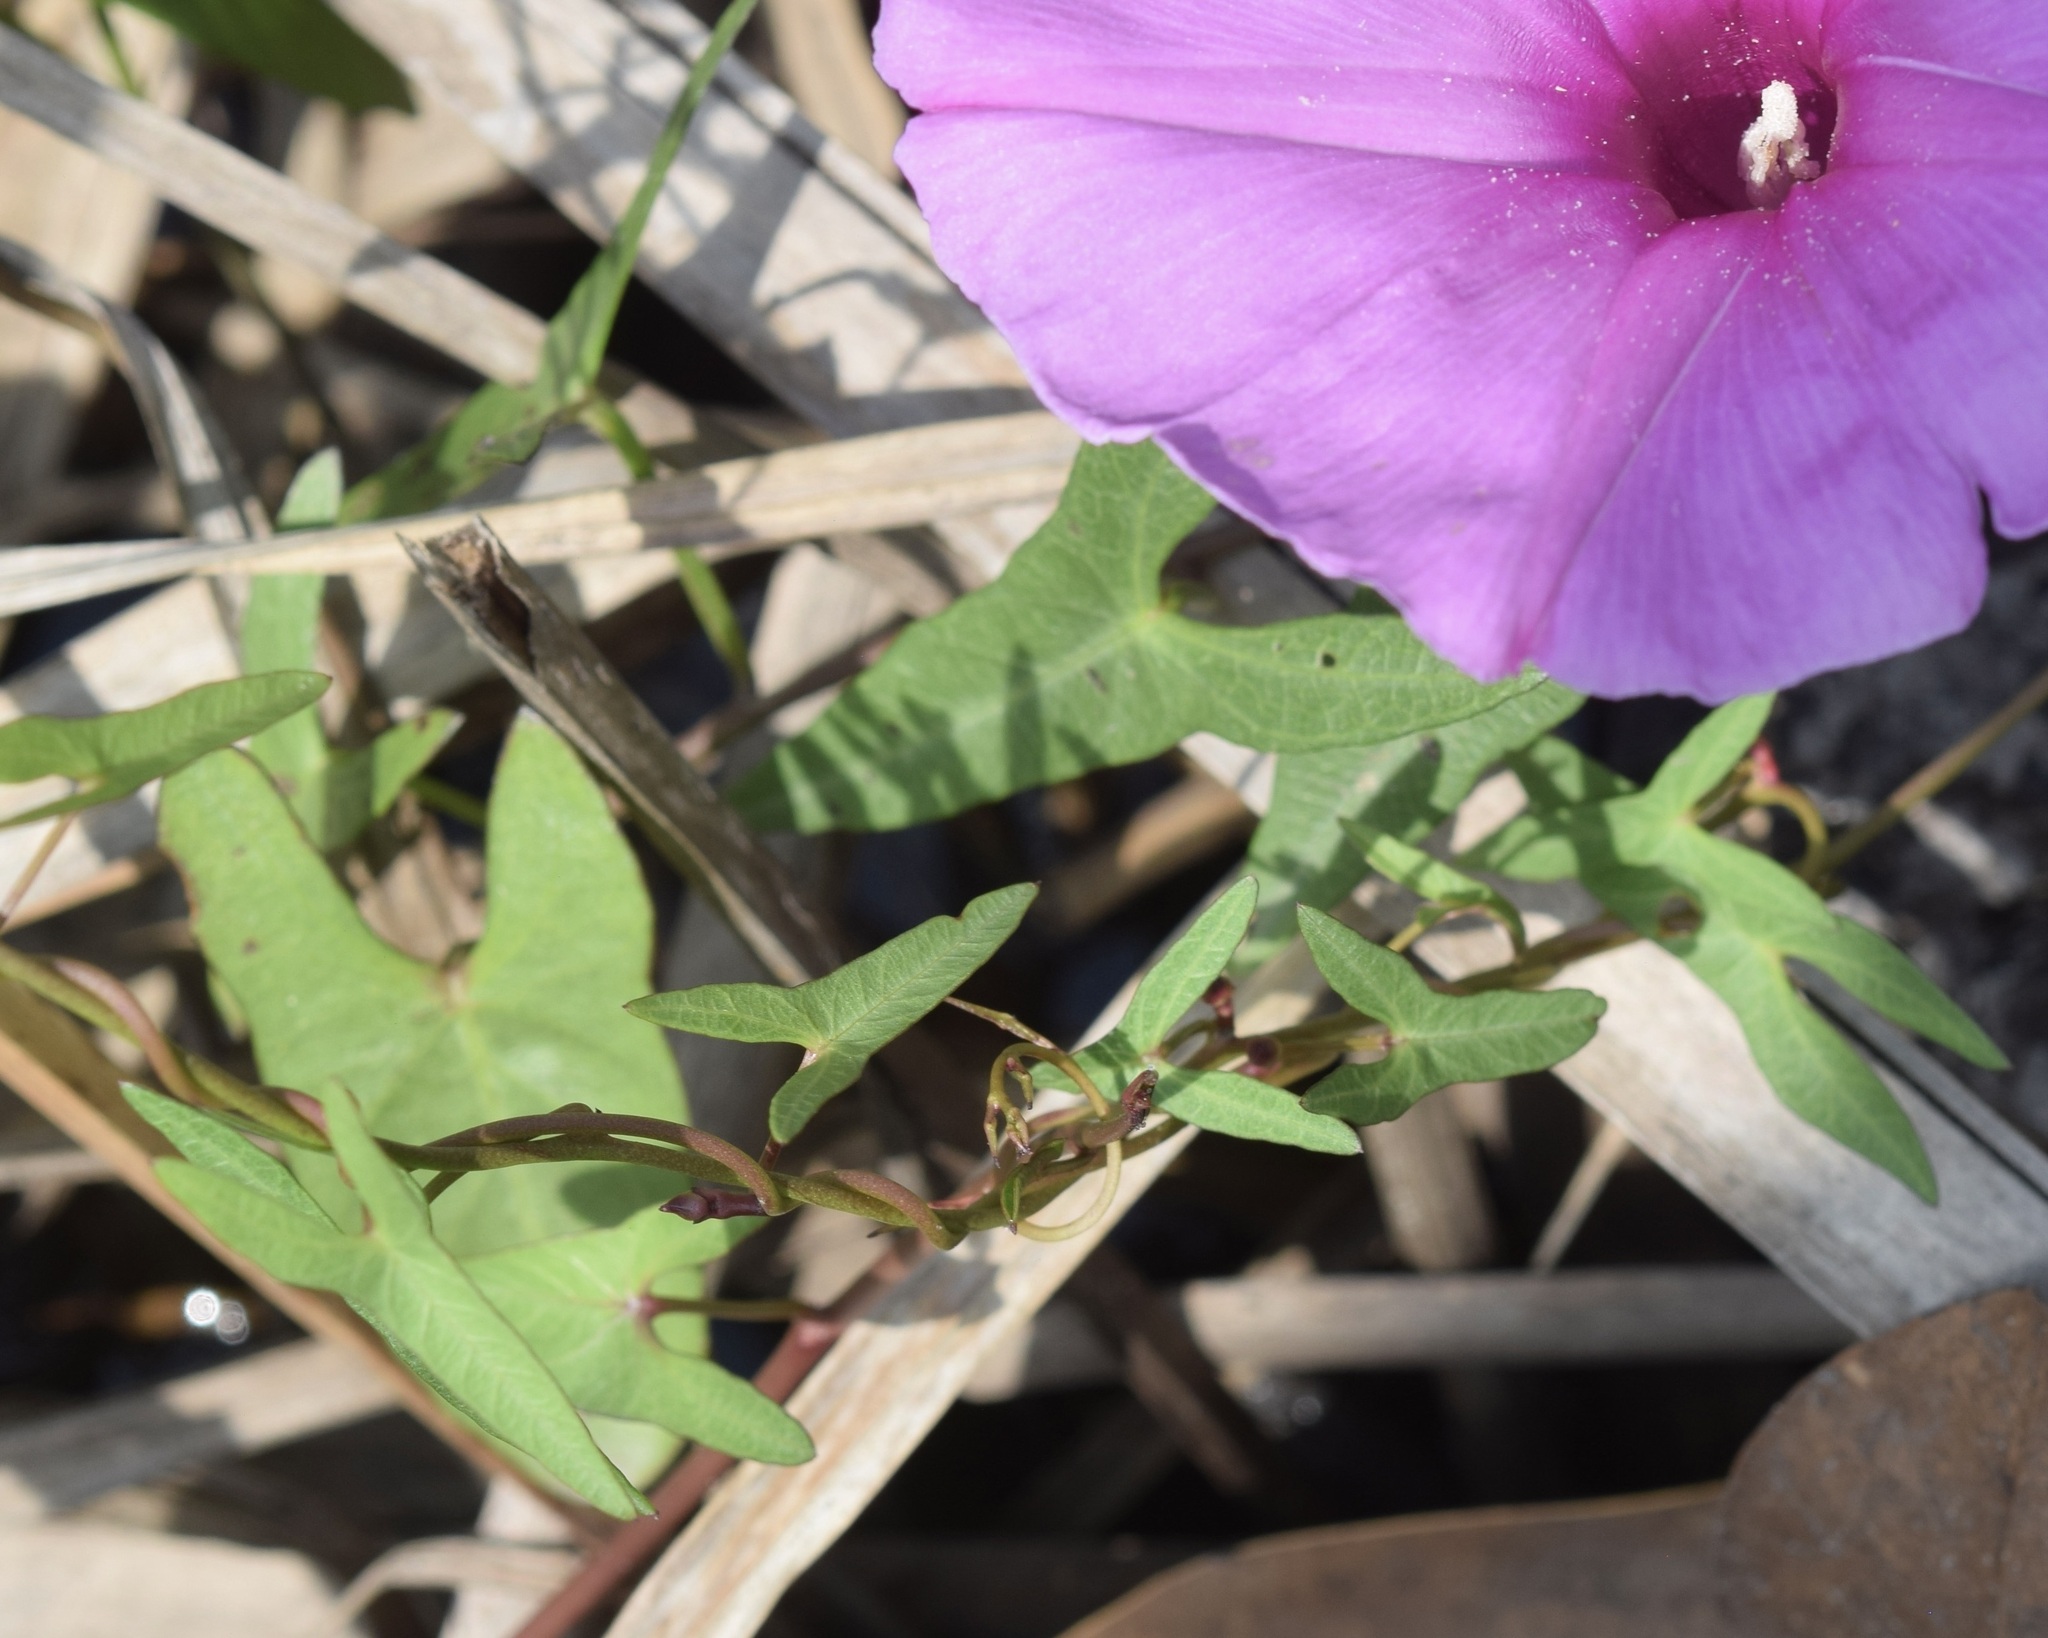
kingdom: Plantae
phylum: Tracheophyta
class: Magnoliopsida
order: Solanales
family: Convolvulaceae
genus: Ipomoea
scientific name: Ipomoea sagittata
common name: Saltmarsh morning glory
